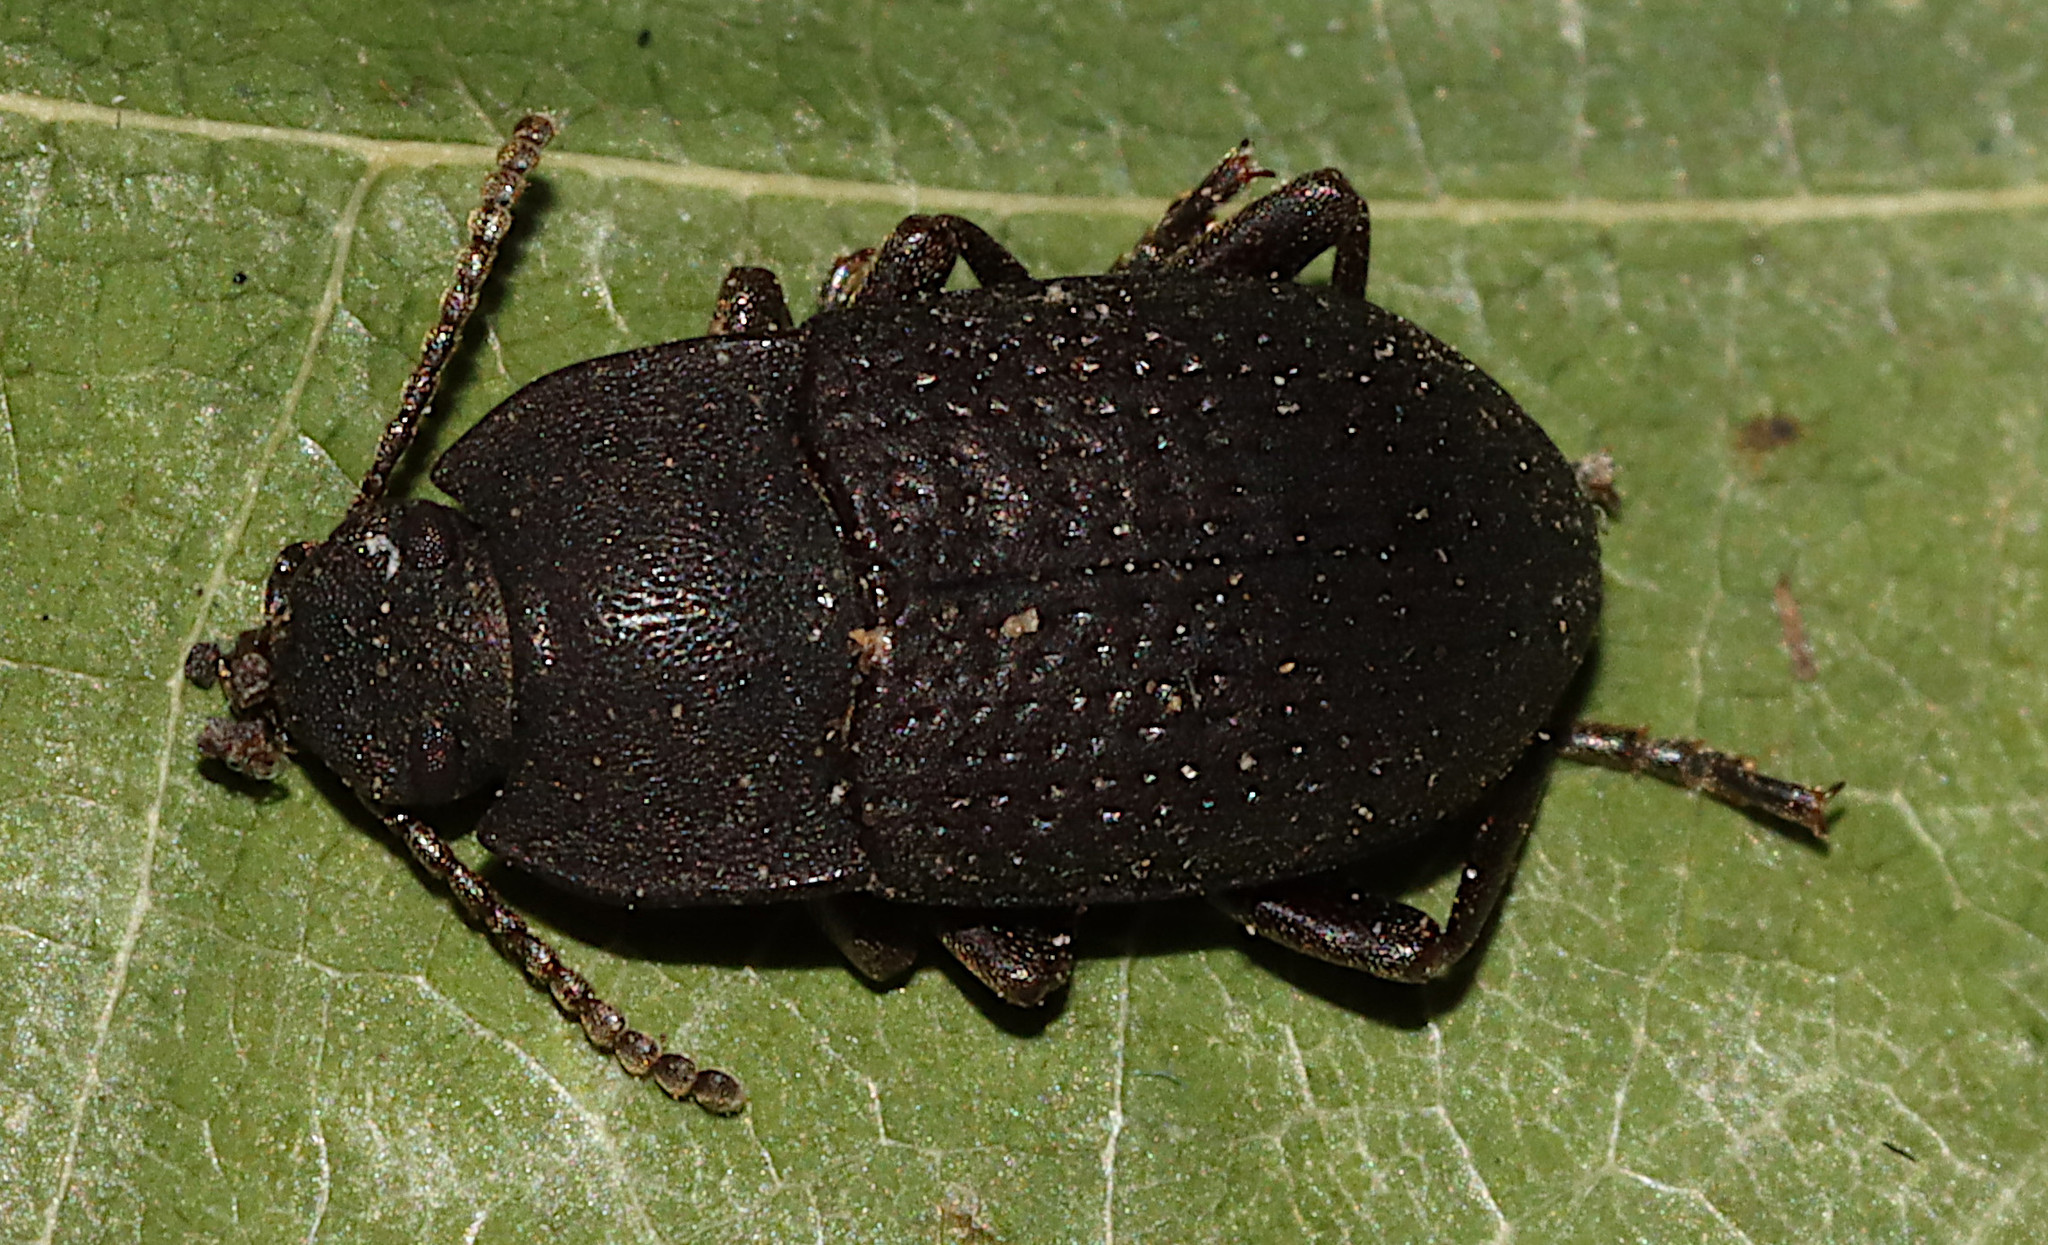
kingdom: Animalia
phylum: Arthropoda
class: Insecta
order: Coleoptera
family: Tenebrionidae
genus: Asiopus
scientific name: Asiopus
